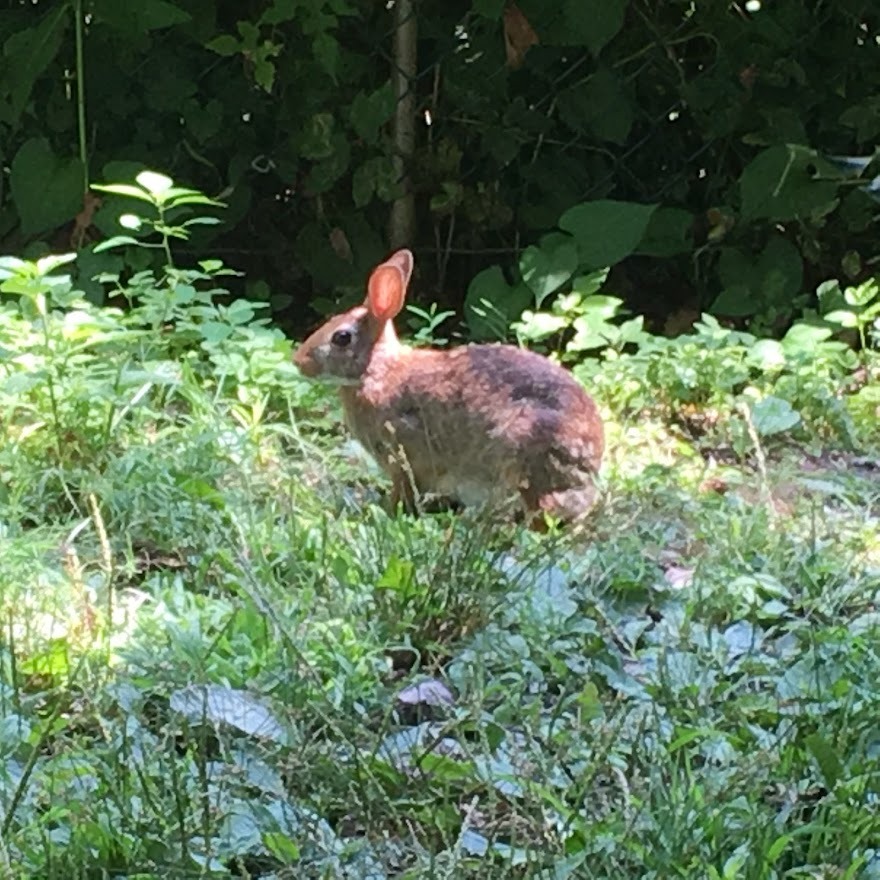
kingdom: Animalia
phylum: Chordata
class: Mammalia
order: Lagomorpha
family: Leporidae
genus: Sylvilagus
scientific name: Sylvilagus floridanus
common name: Eastern cottontail
